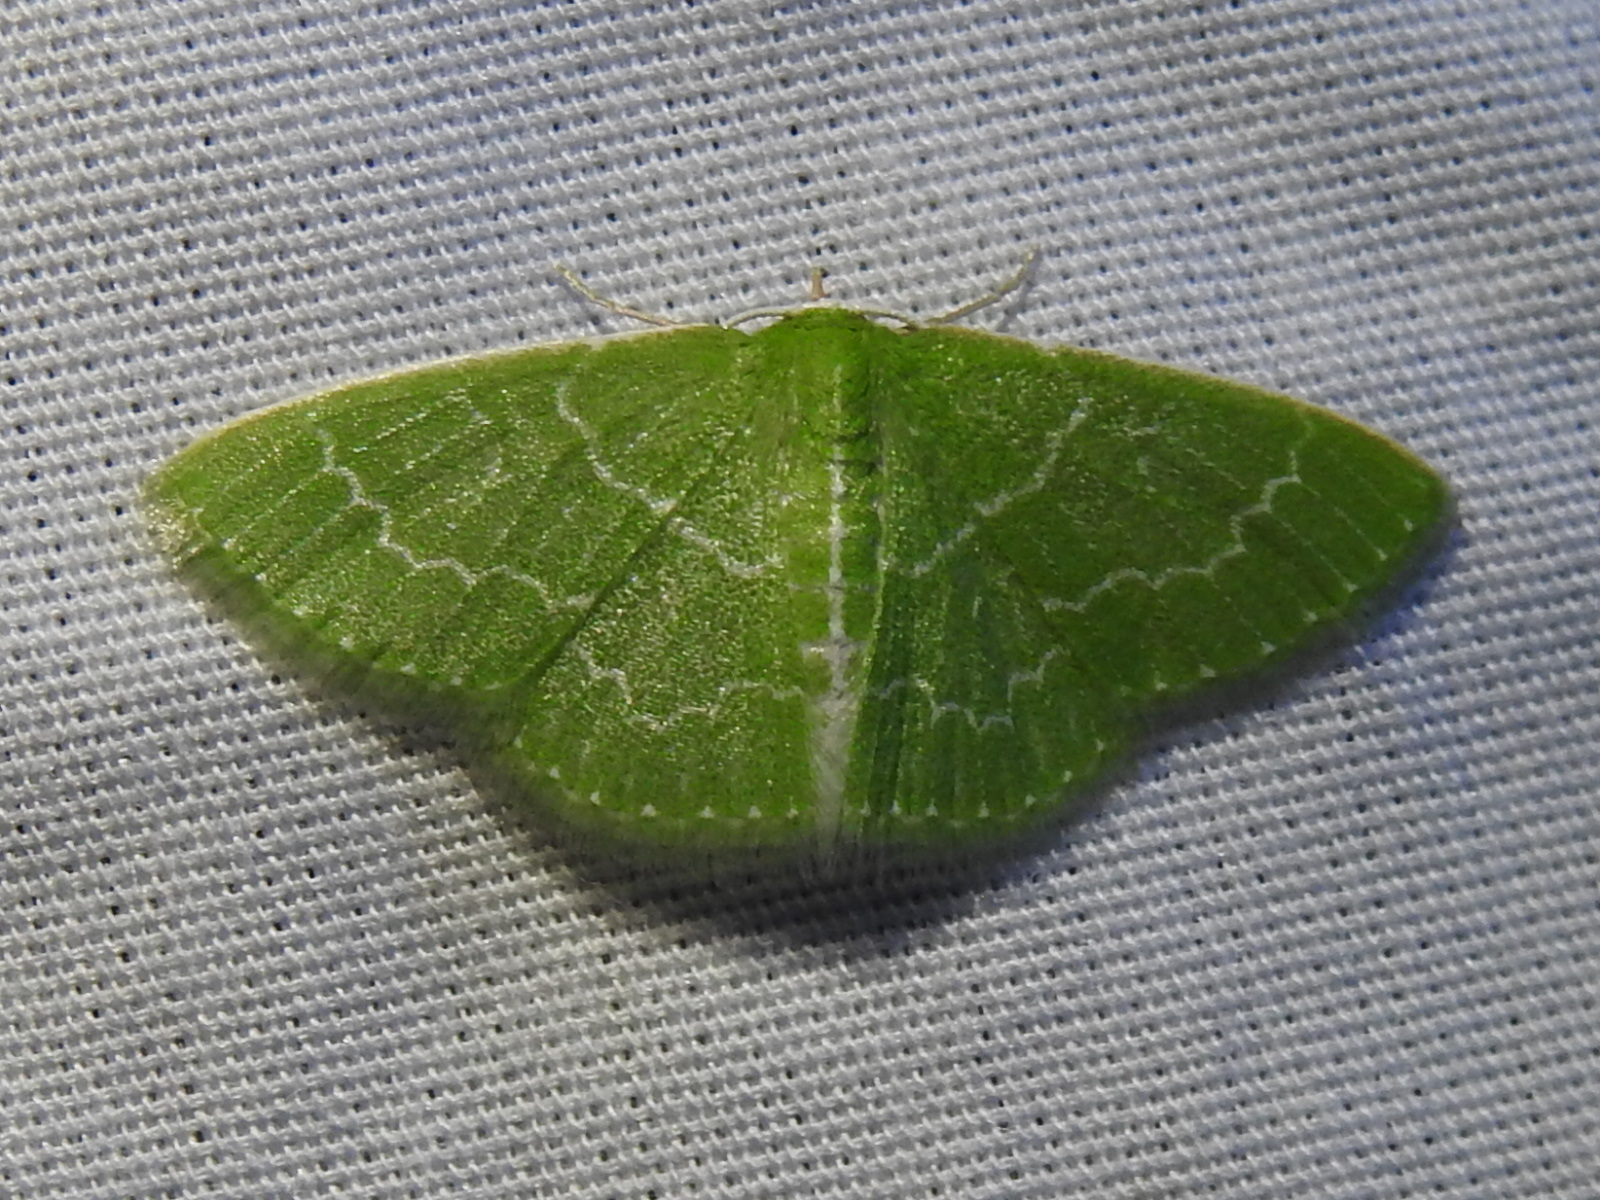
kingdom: Animalia
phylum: Arthropoda
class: Insecta
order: Lepidoptera
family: Geometridae
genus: Synchlora
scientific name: Synchlora frondaria
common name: Southern emerald
